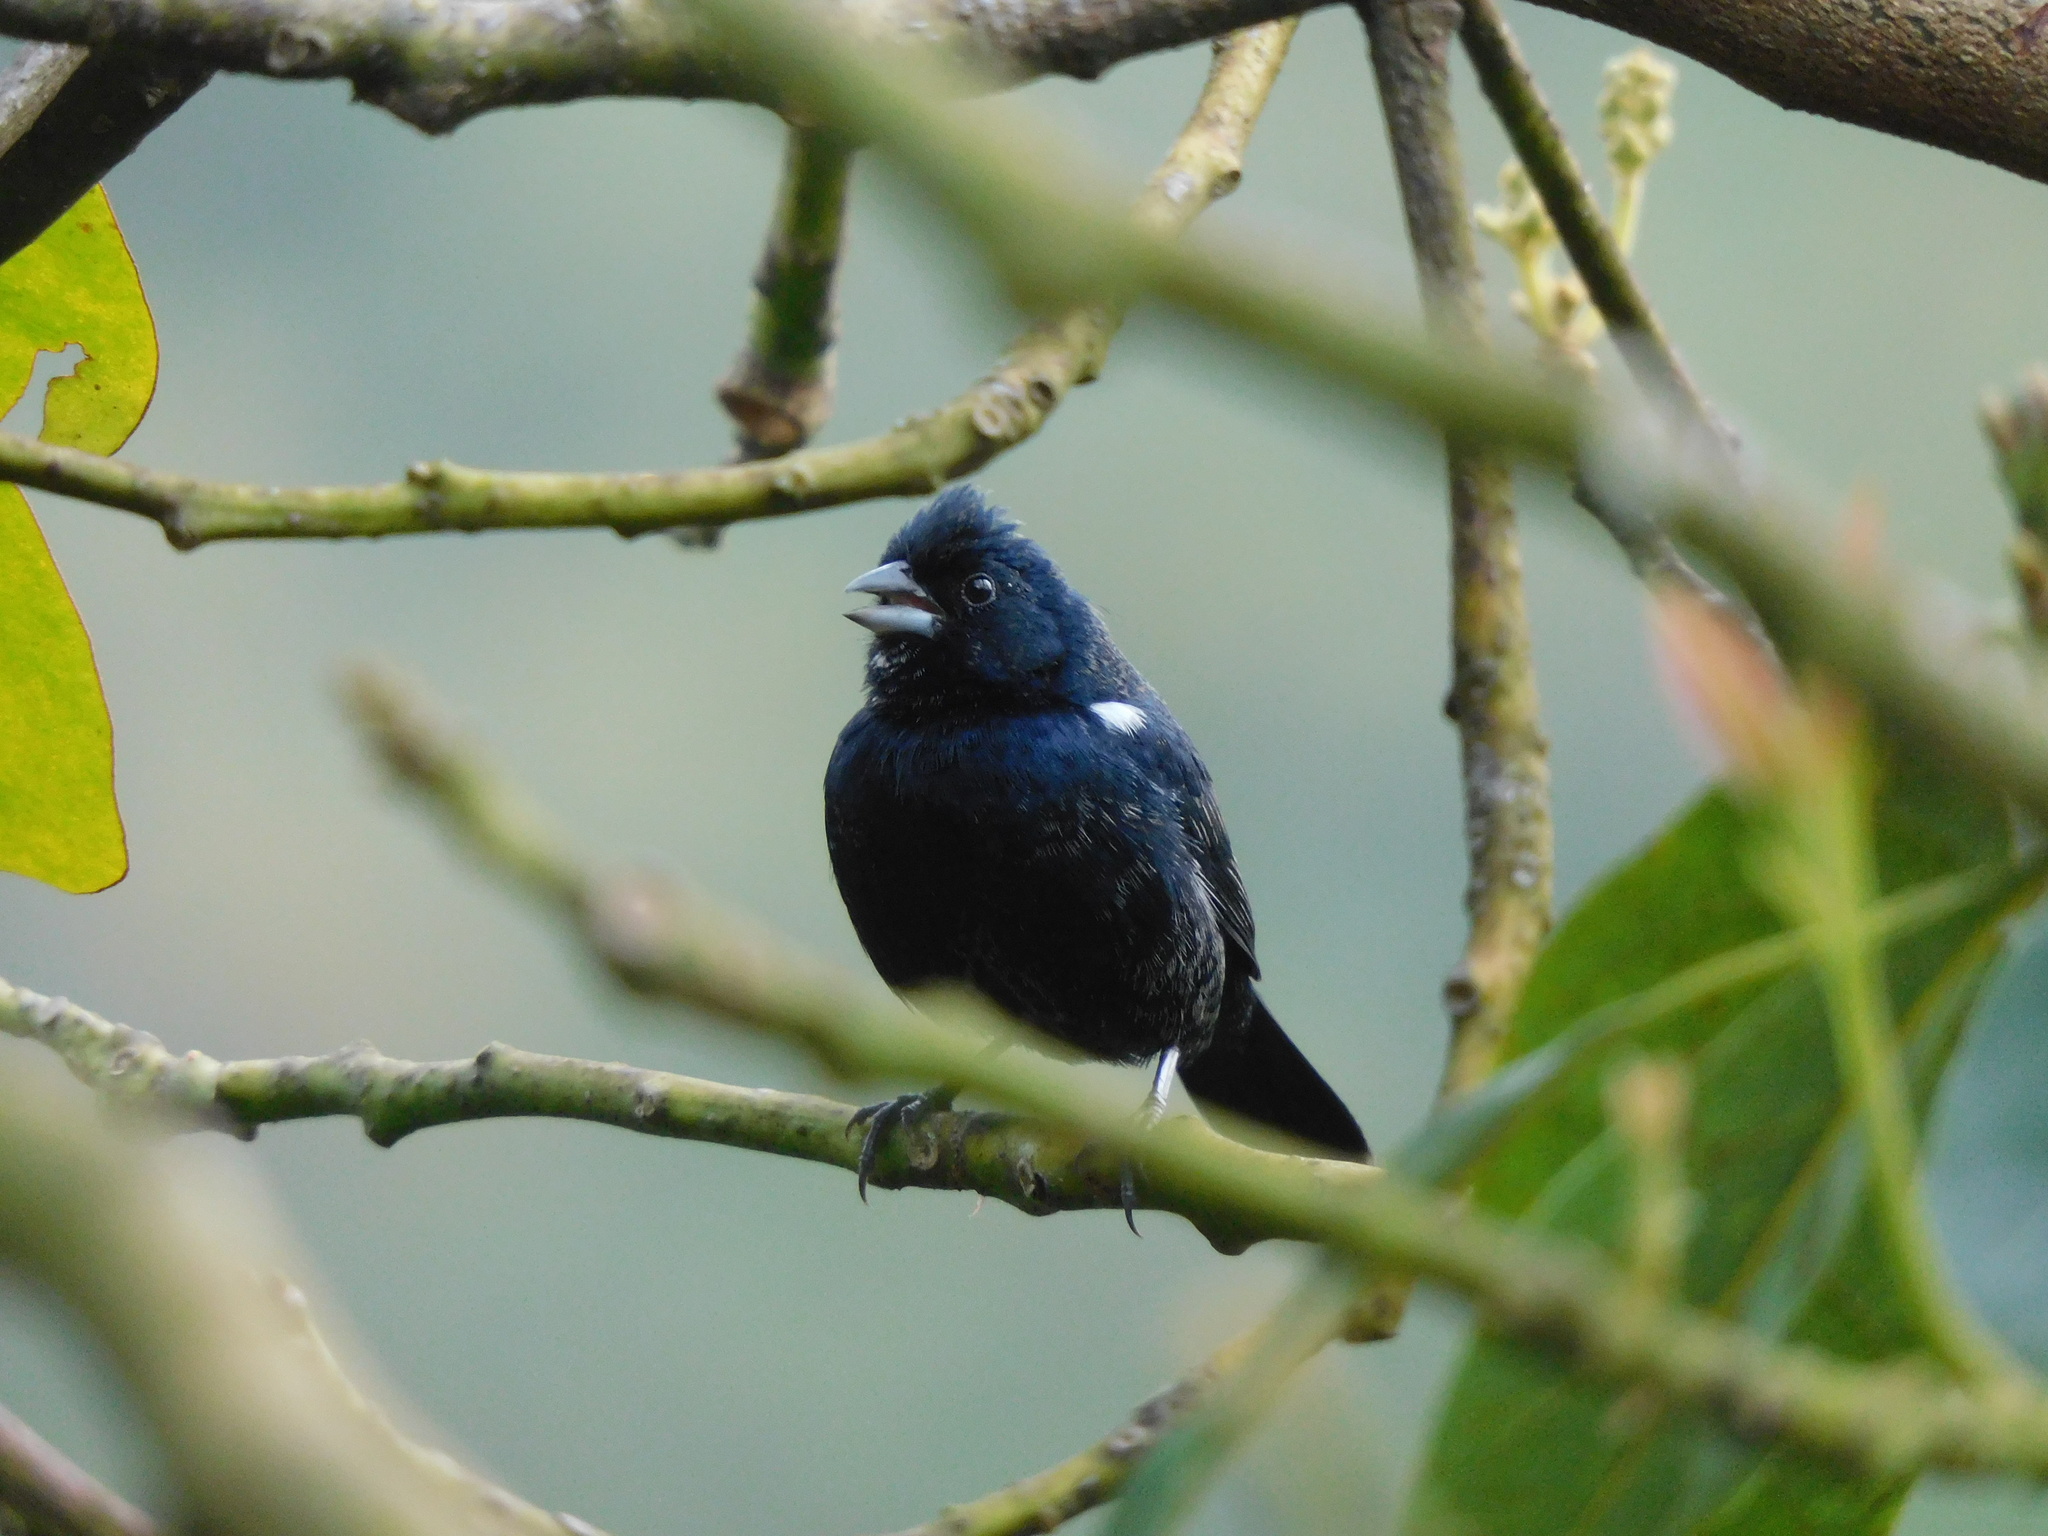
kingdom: Animalia
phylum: Chordata
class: Aves
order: Passeriformes
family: Thraupidae
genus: Volatinia
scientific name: Volatinia jacarina
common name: Blue-black grassquit
